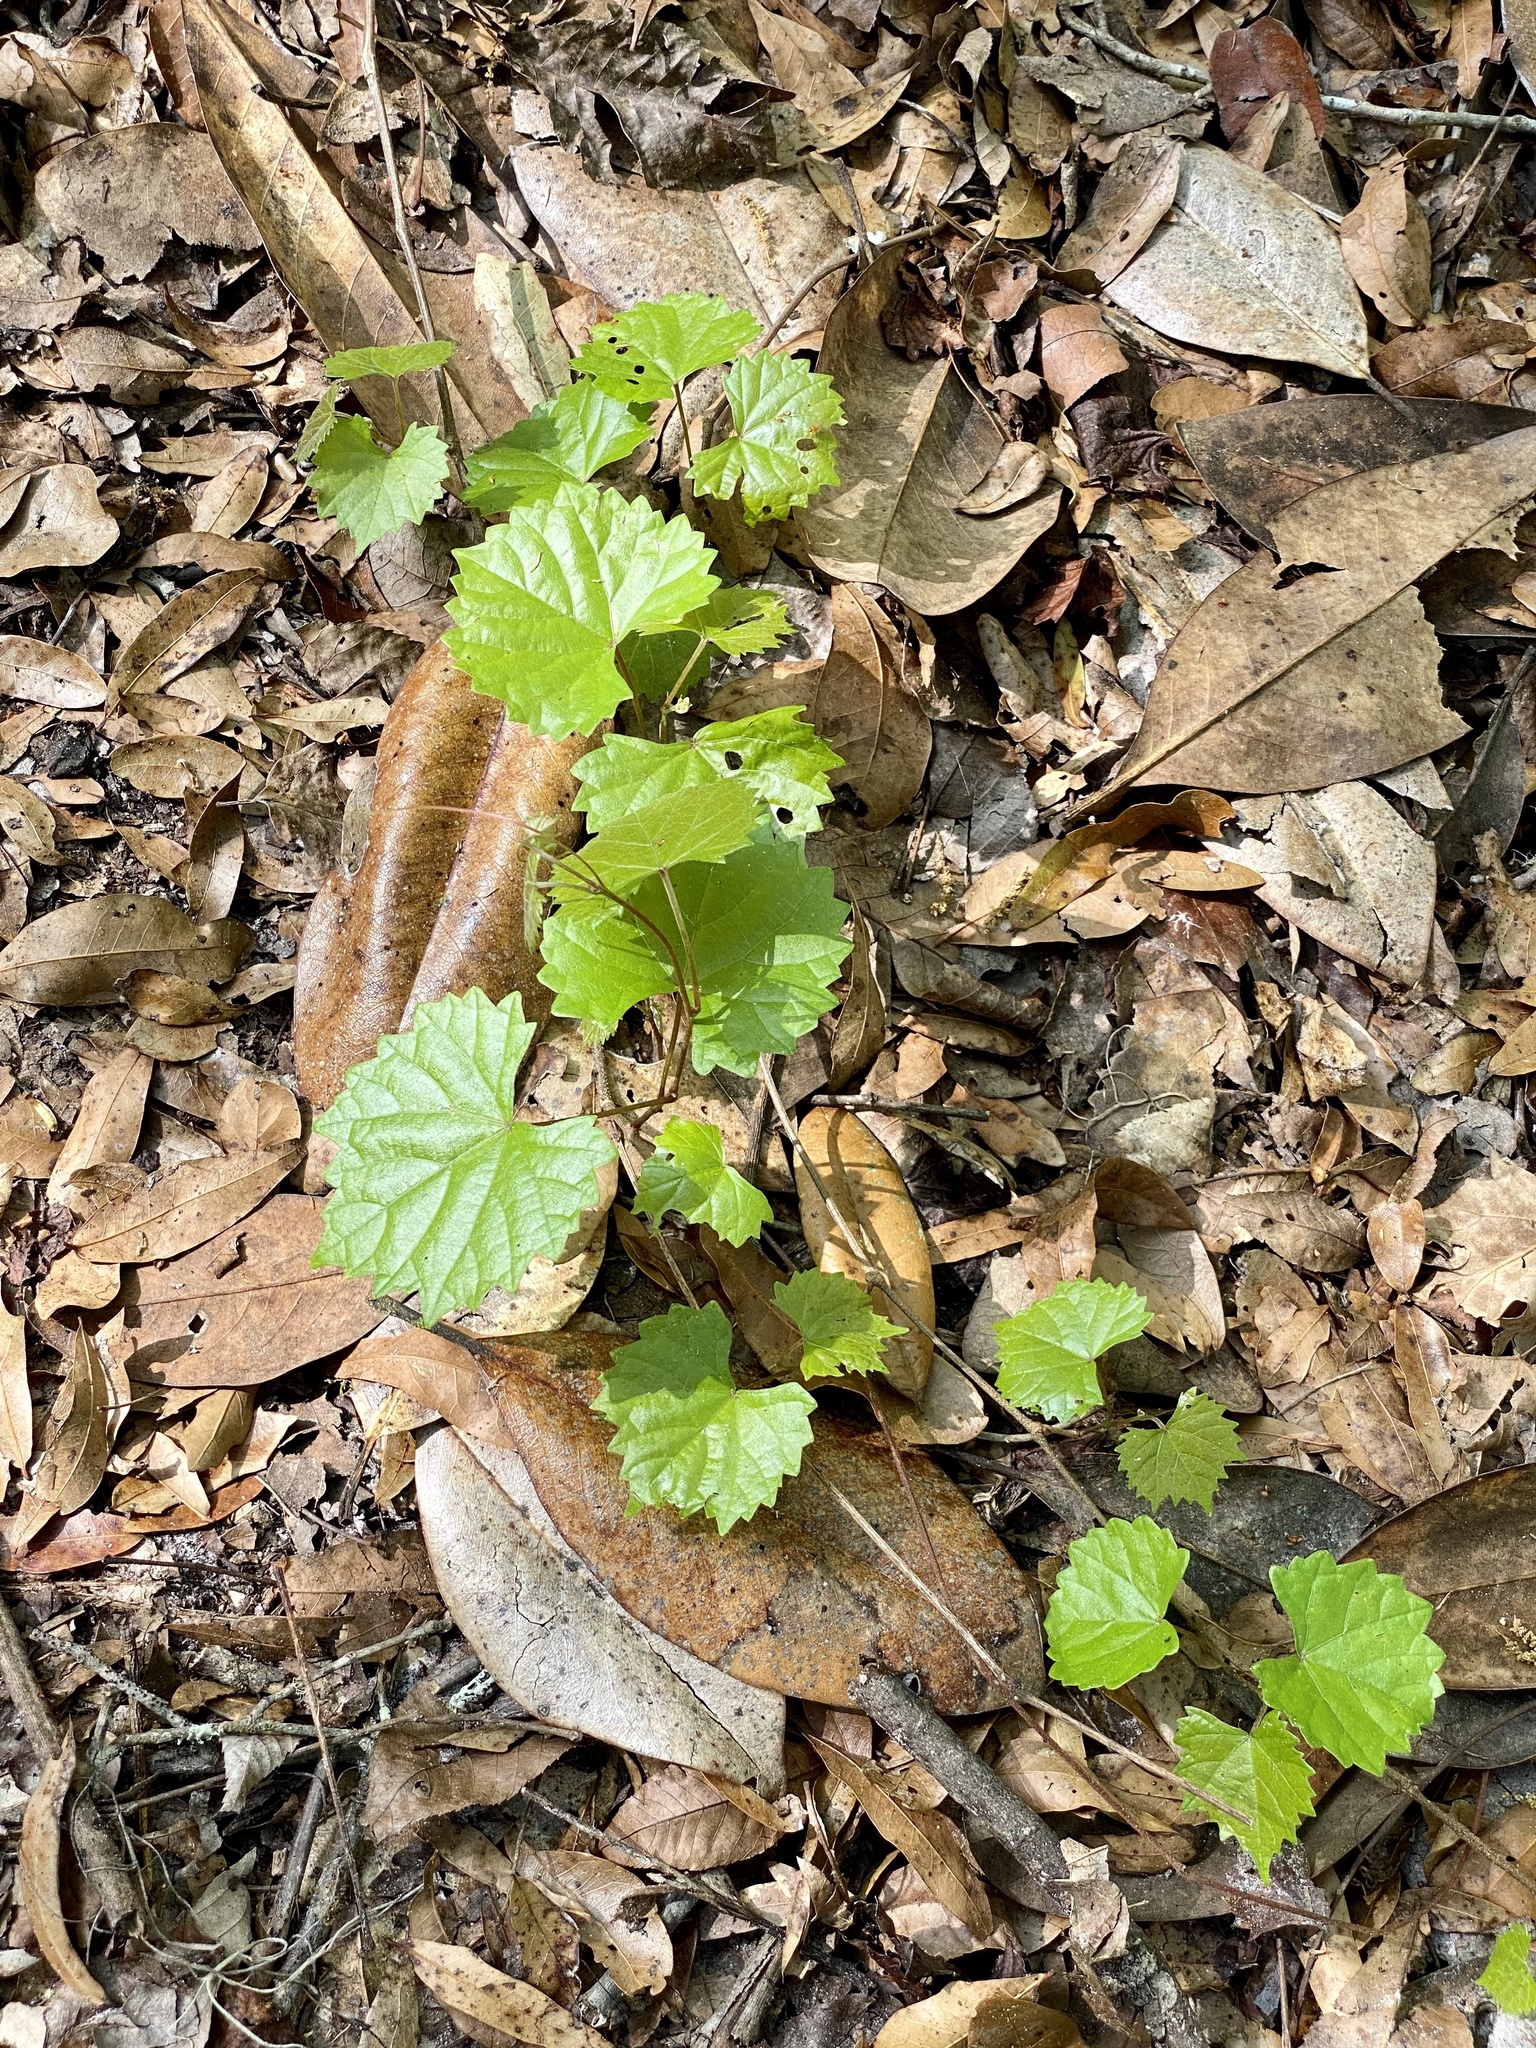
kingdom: Plantae
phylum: Tracheophyta
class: Magnoliopsida
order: Vitales
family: Vitaceae
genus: Vitis
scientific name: Vitis rotundifolia
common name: Muscadine grape
